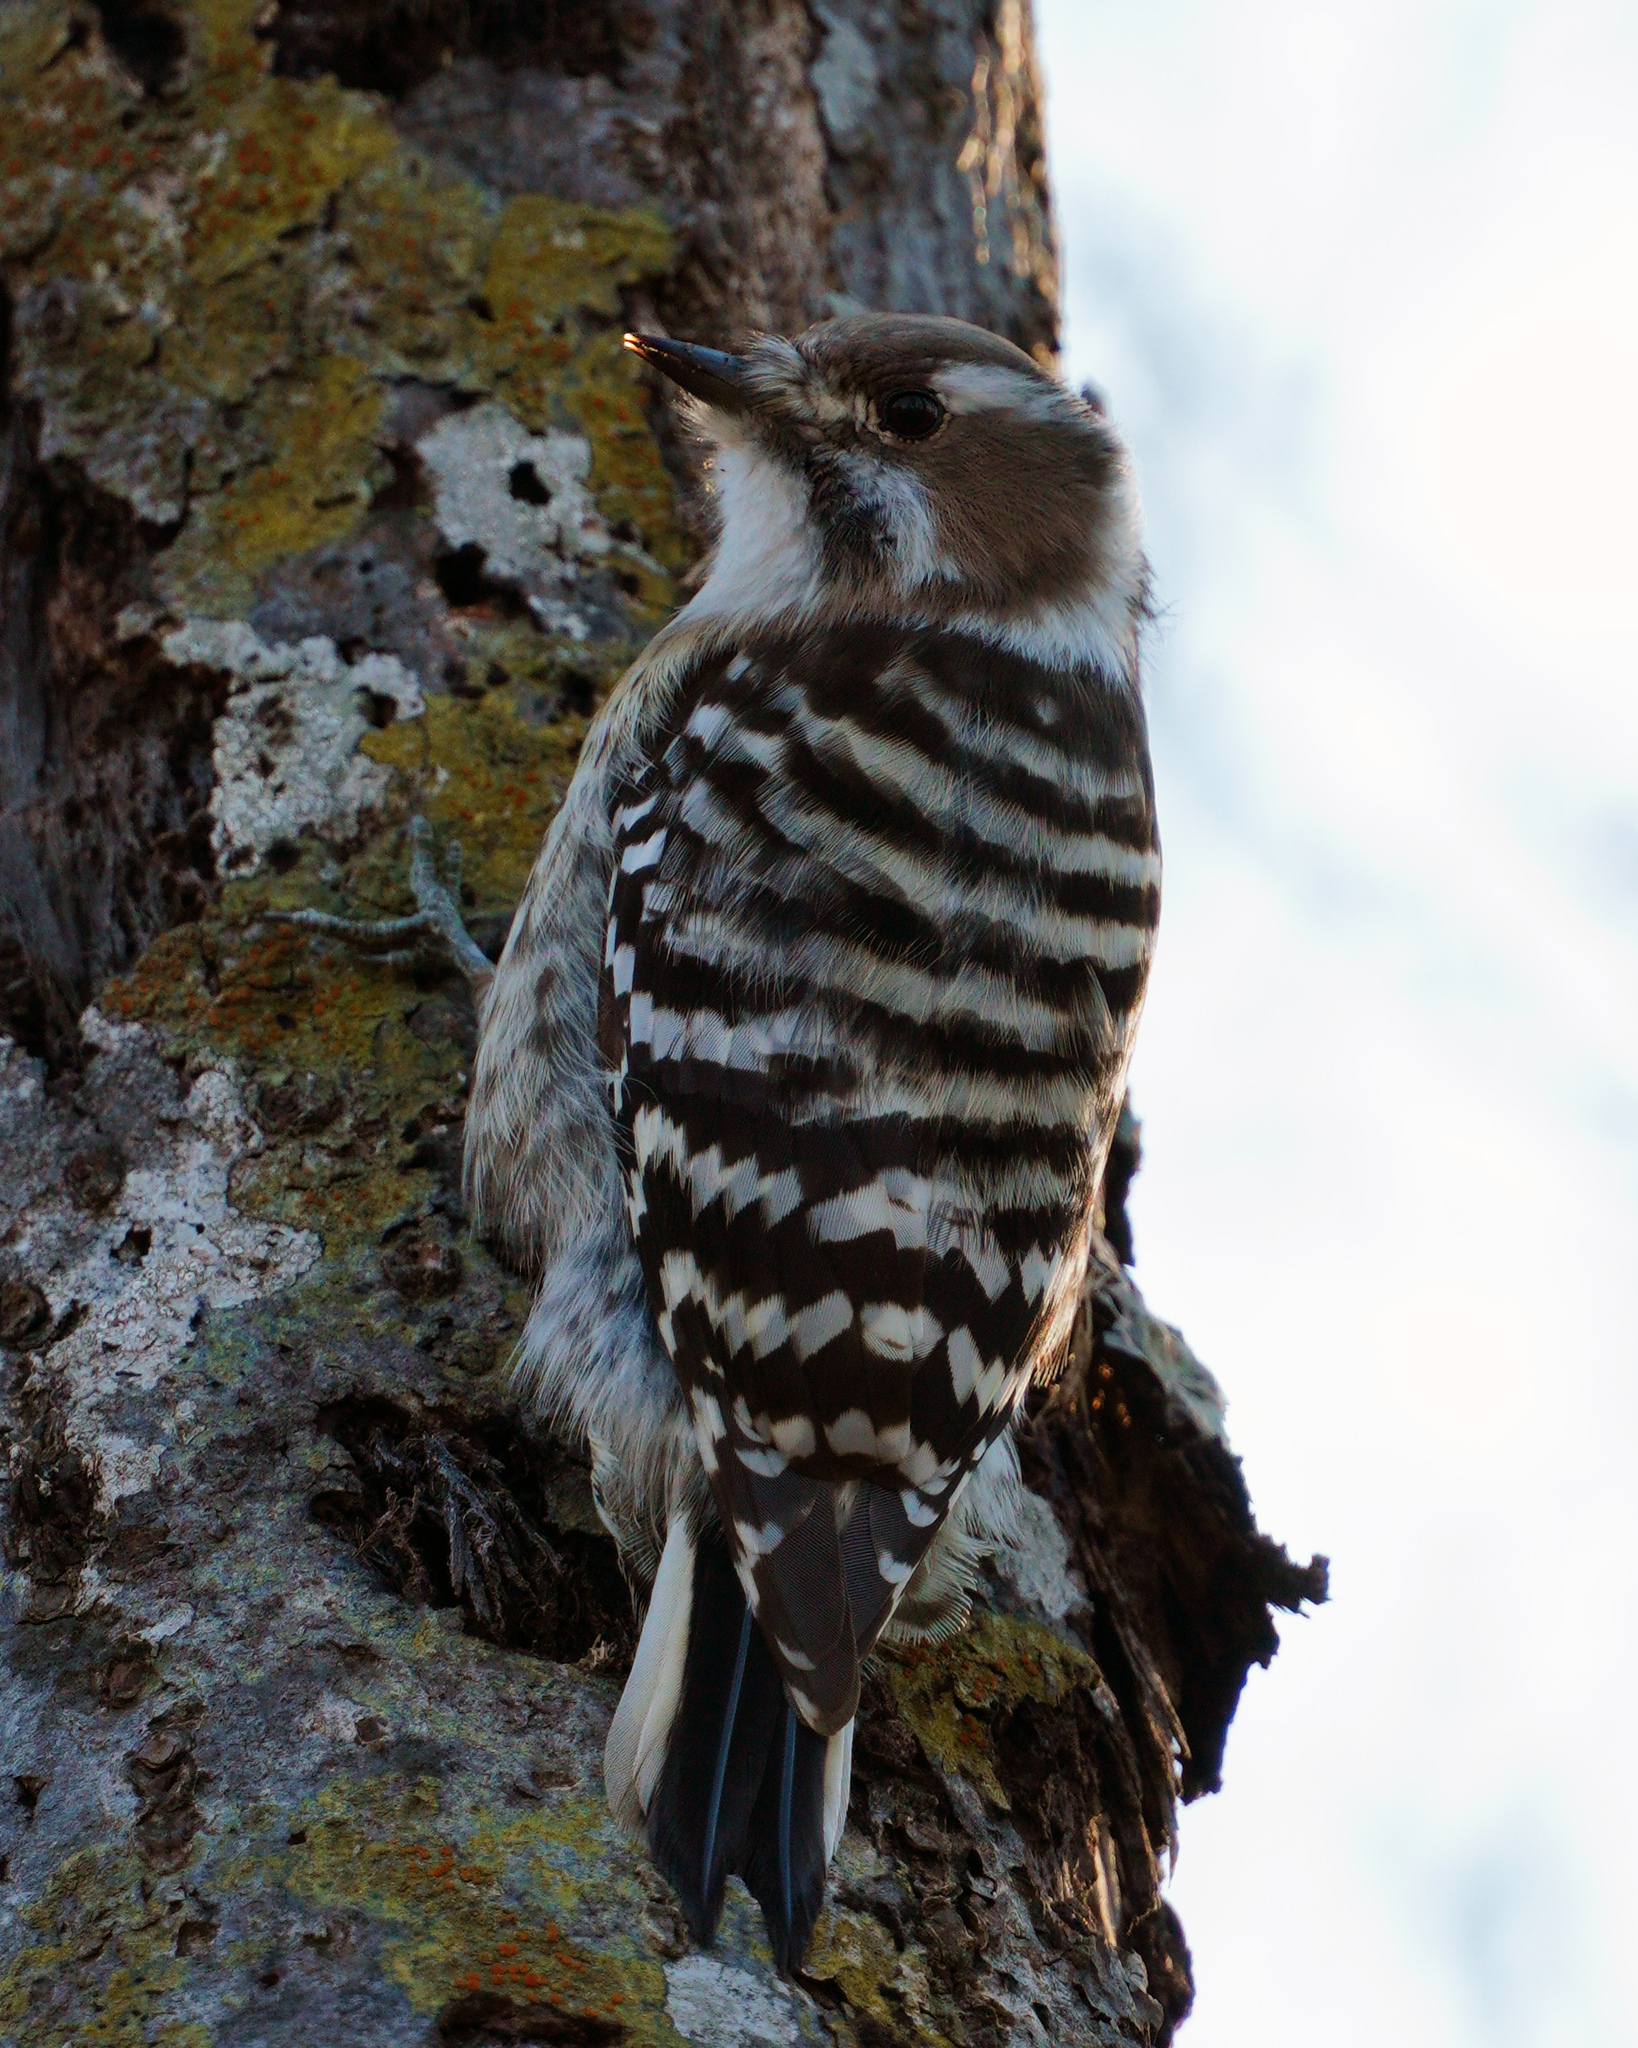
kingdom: Animalia
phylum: Chordata
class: Aves
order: Piciformes
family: Picidae
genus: Yungipicus
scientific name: Yungipicus kizuki
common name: Japanese pygmy woodpecker
